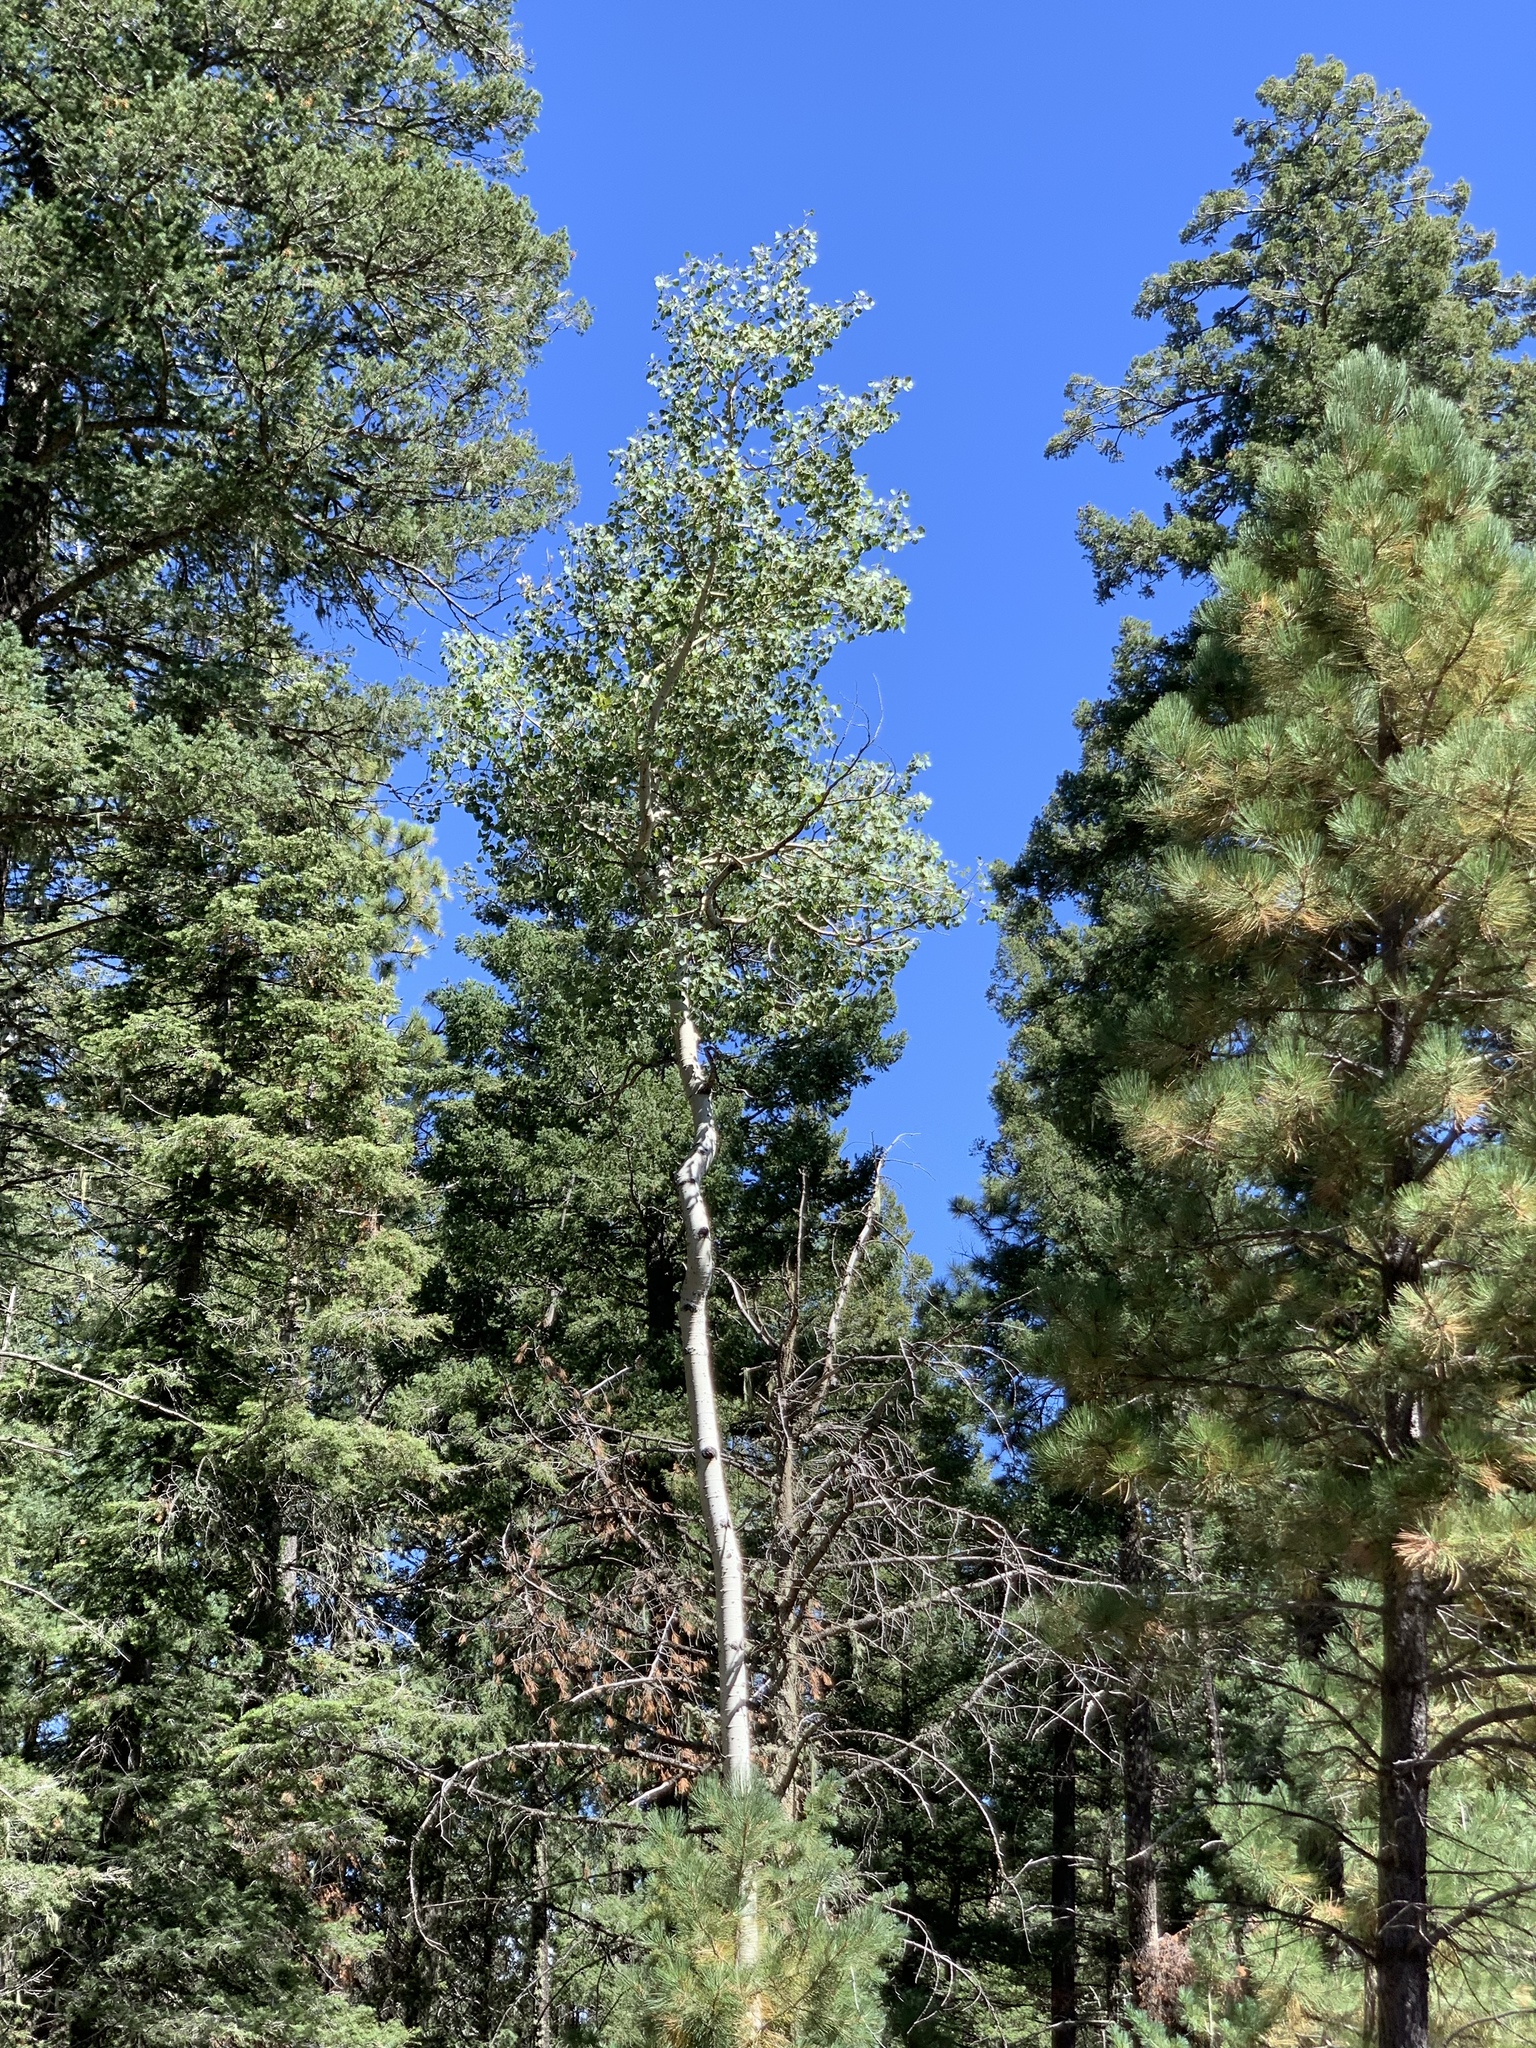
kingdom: Plantae
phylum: Tracheophyta
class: Magnoliopsida
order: Malpighiales
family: Salicaceae
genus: Populus
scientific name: Populus tremuloides
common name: Quaking aspen
